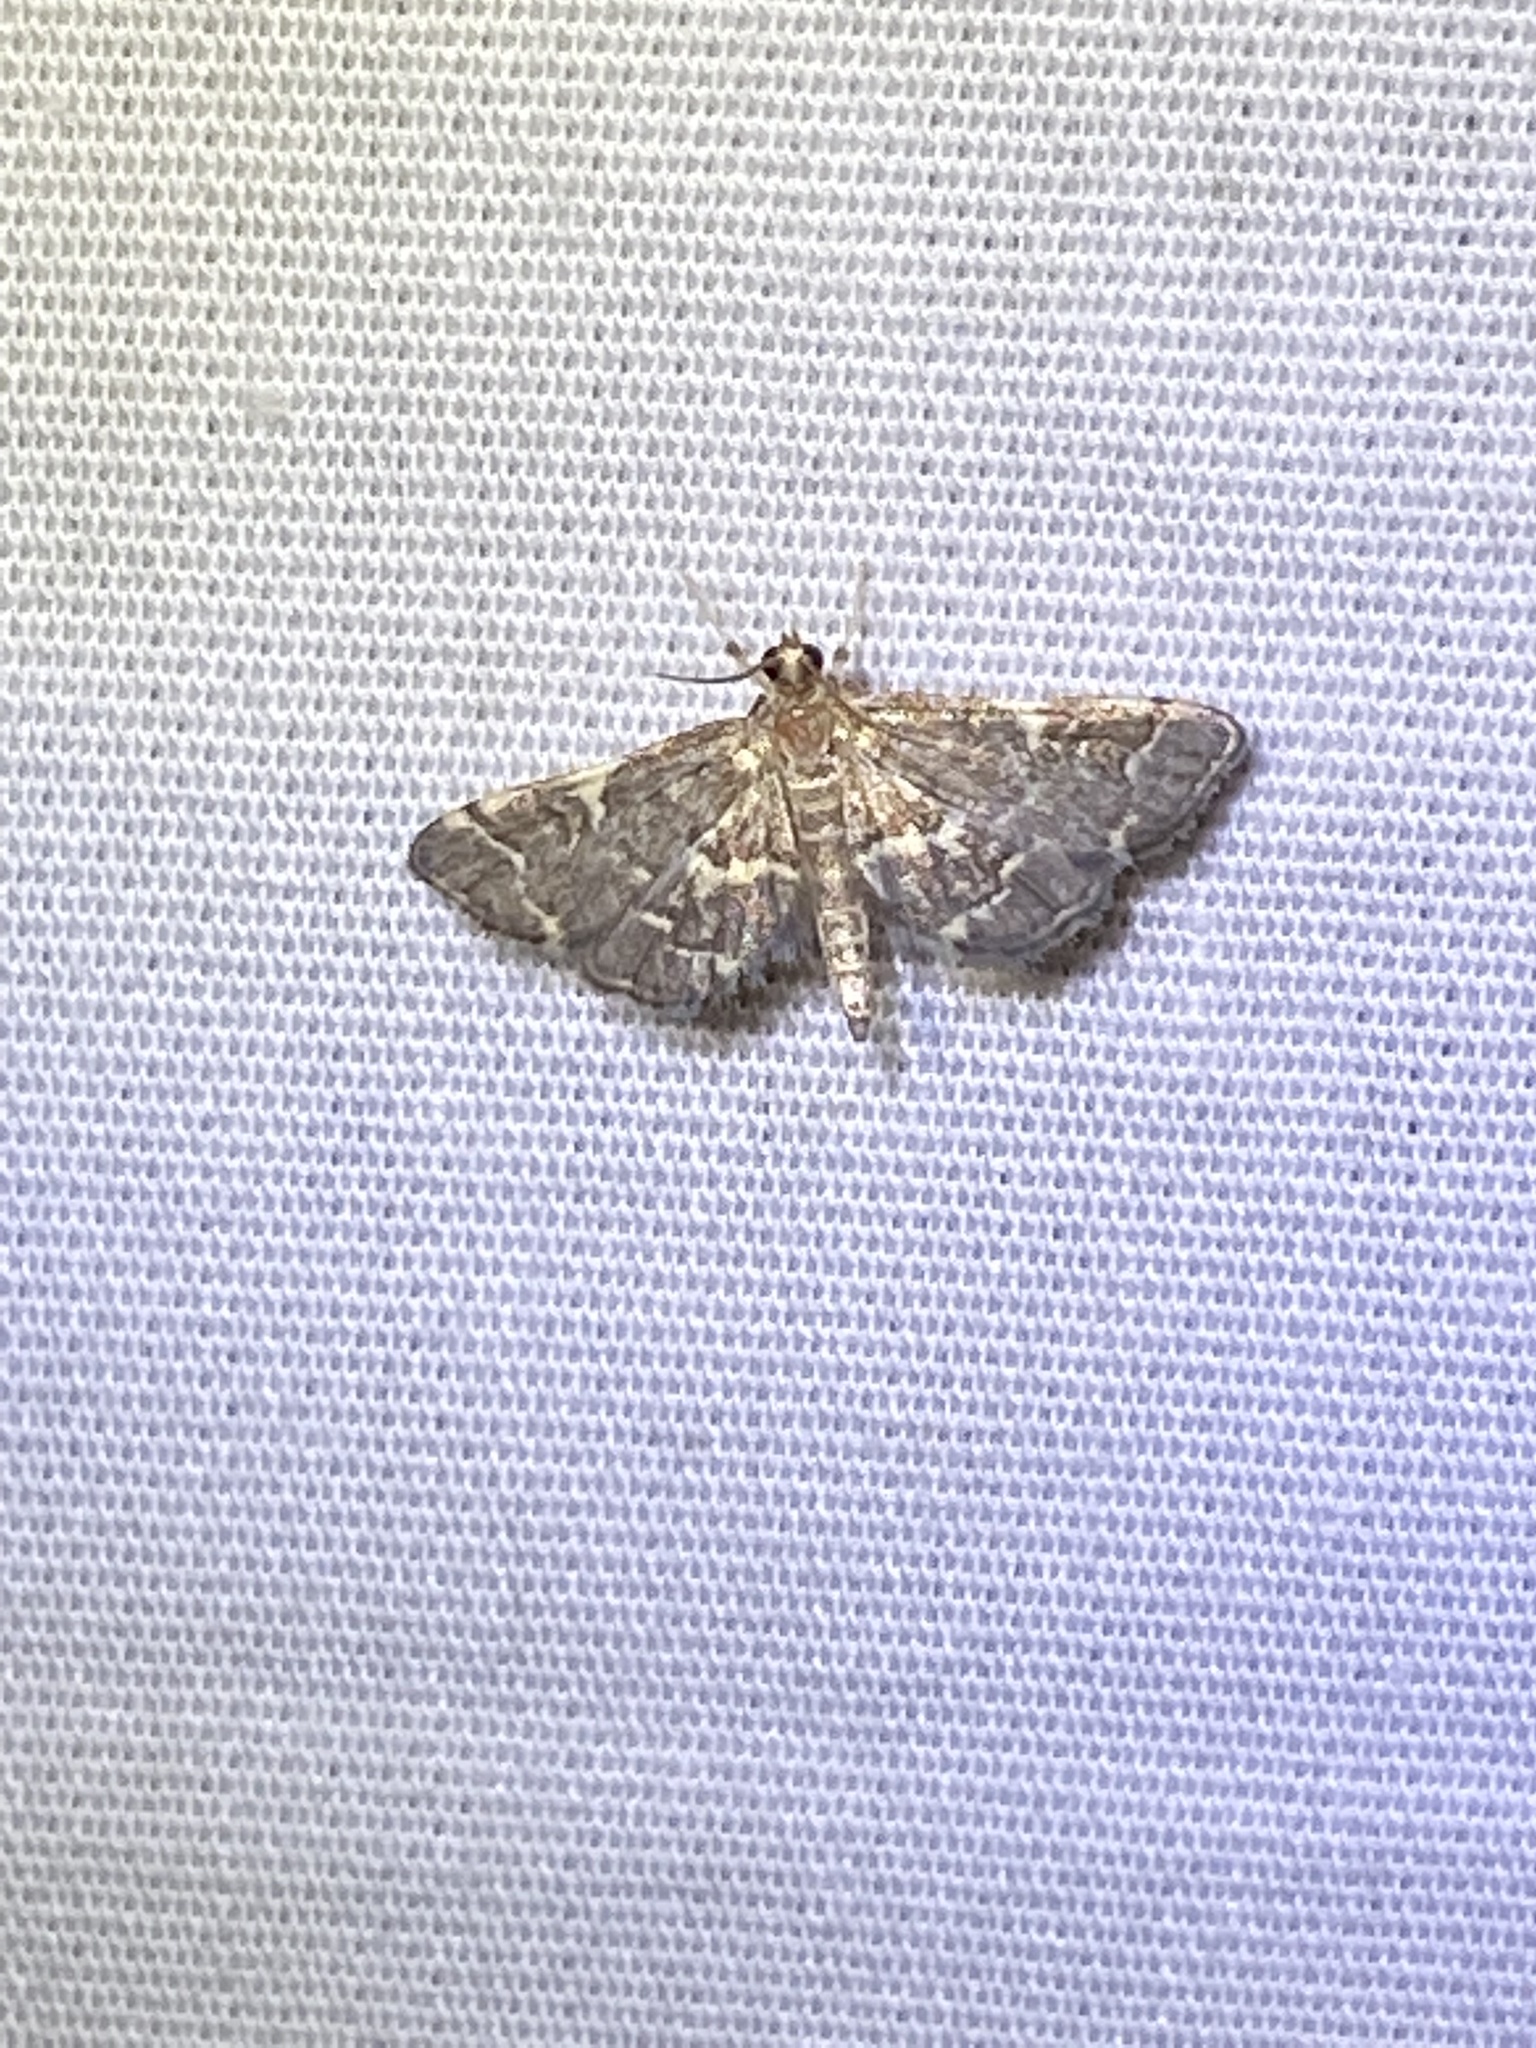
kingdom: Animalia
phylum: Arthropoda
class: Insecta
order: Lepidoptera
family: Crambidae
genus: Anageshna
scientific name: Anageshna primordialis
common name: Yellow-spotted webworm moth
